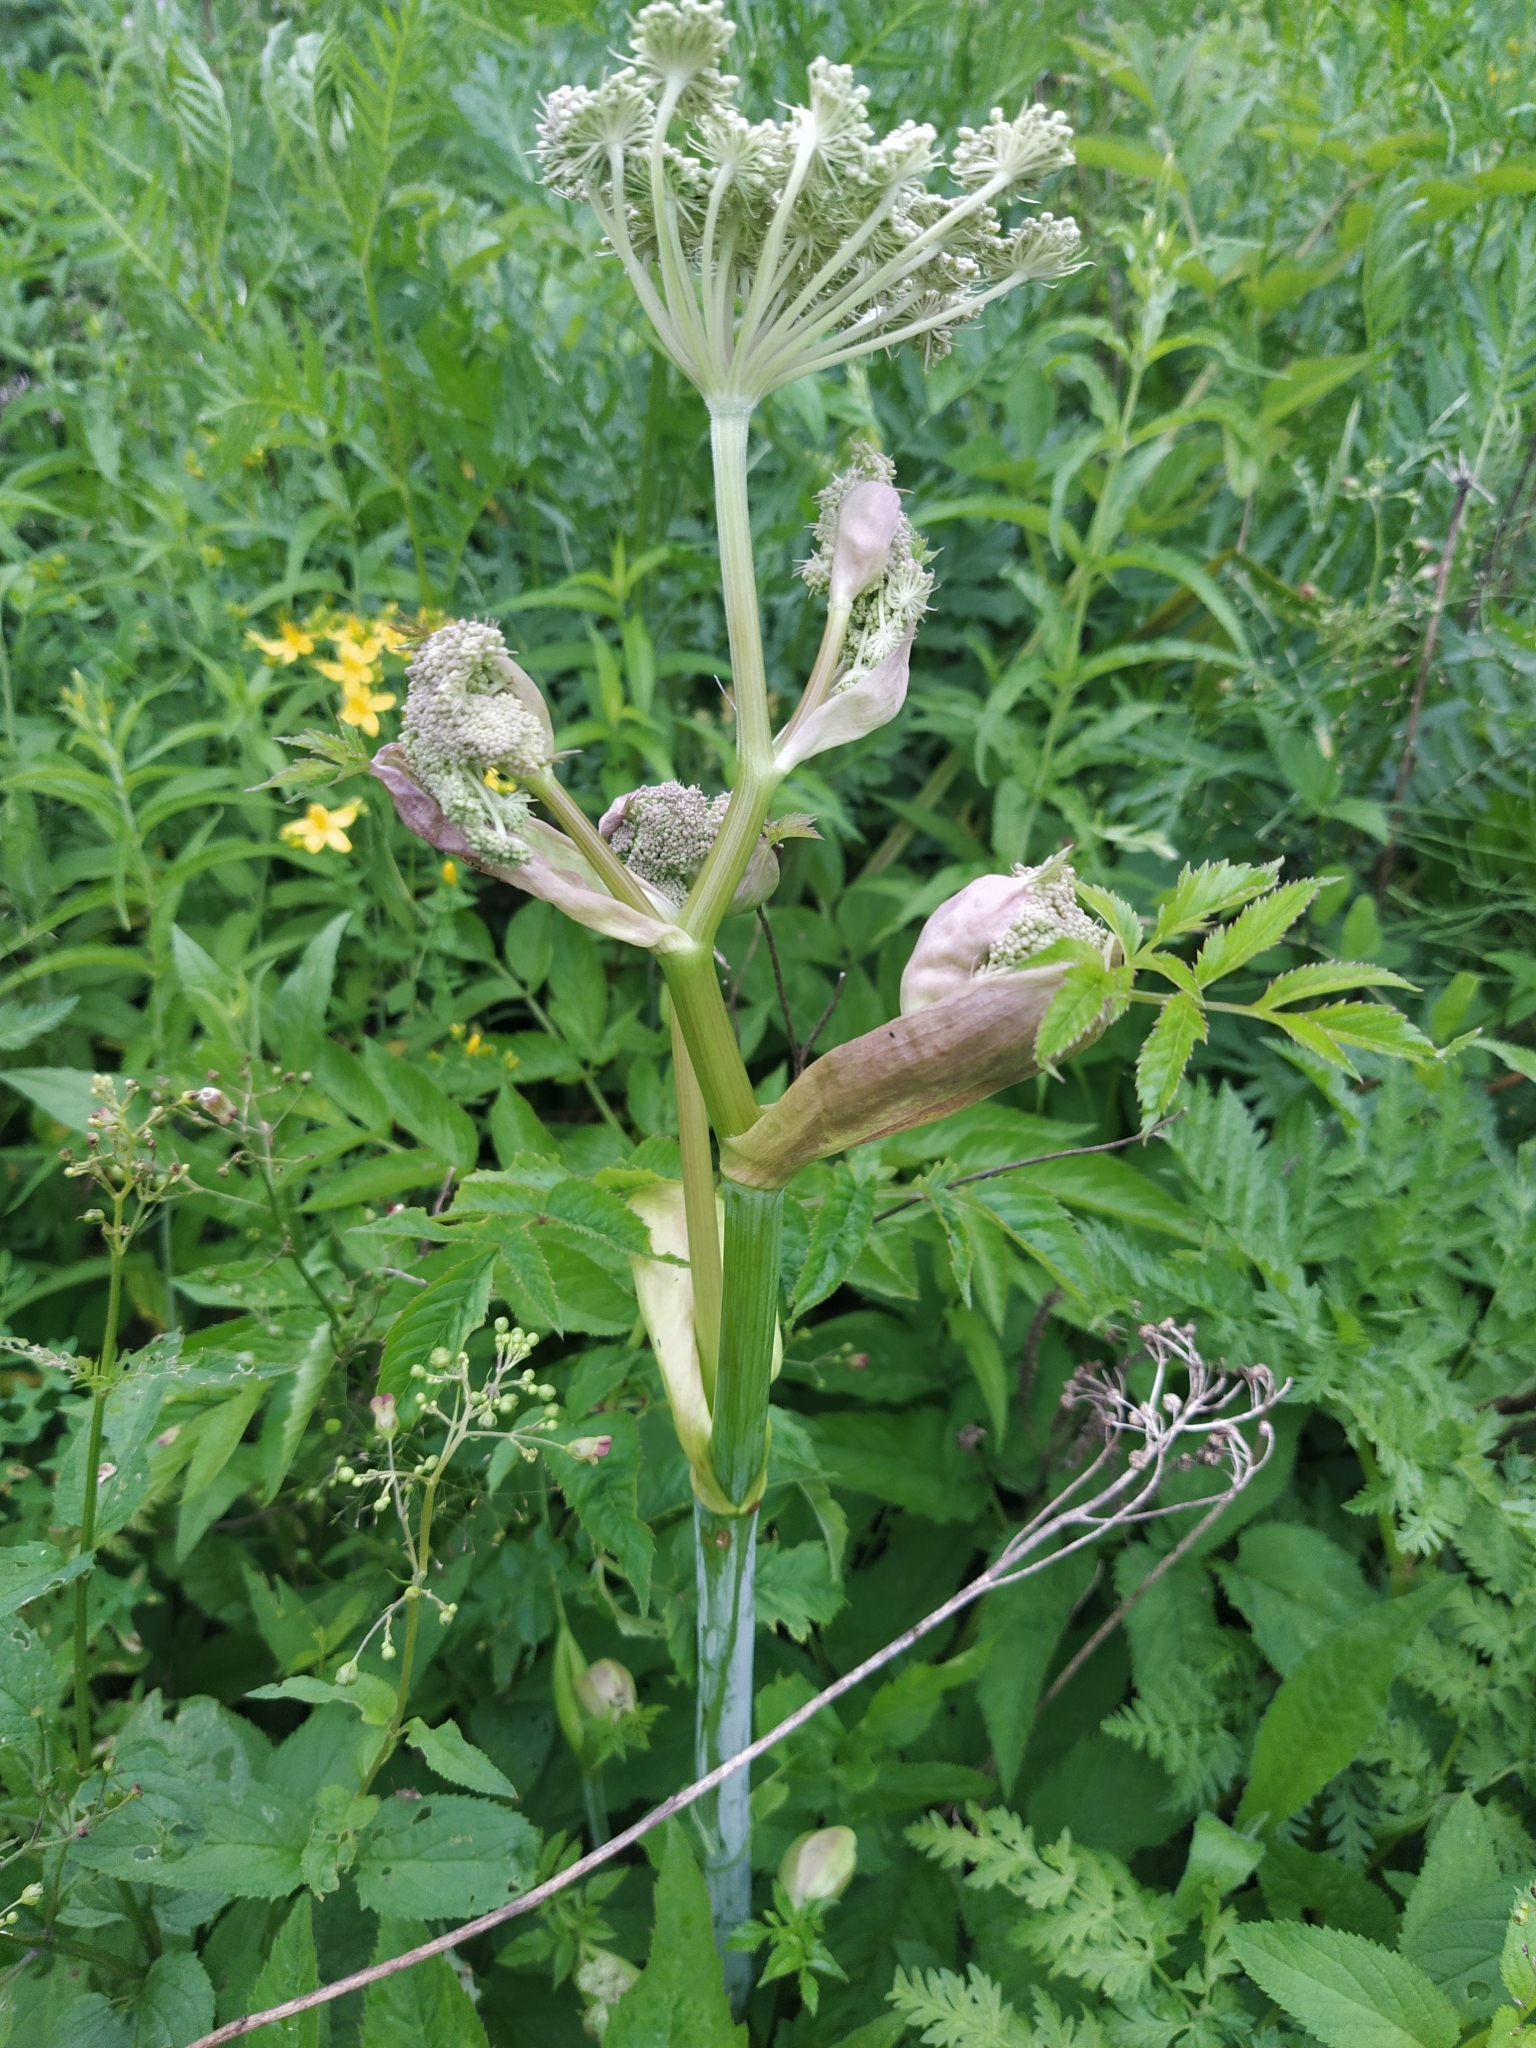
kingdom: Plantae
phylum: Tracheophyta
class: Magnoliopsida
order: Apiales
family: Apiaceae
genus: Angelica
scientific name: Angelica sylvestris
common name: Wild angelica
